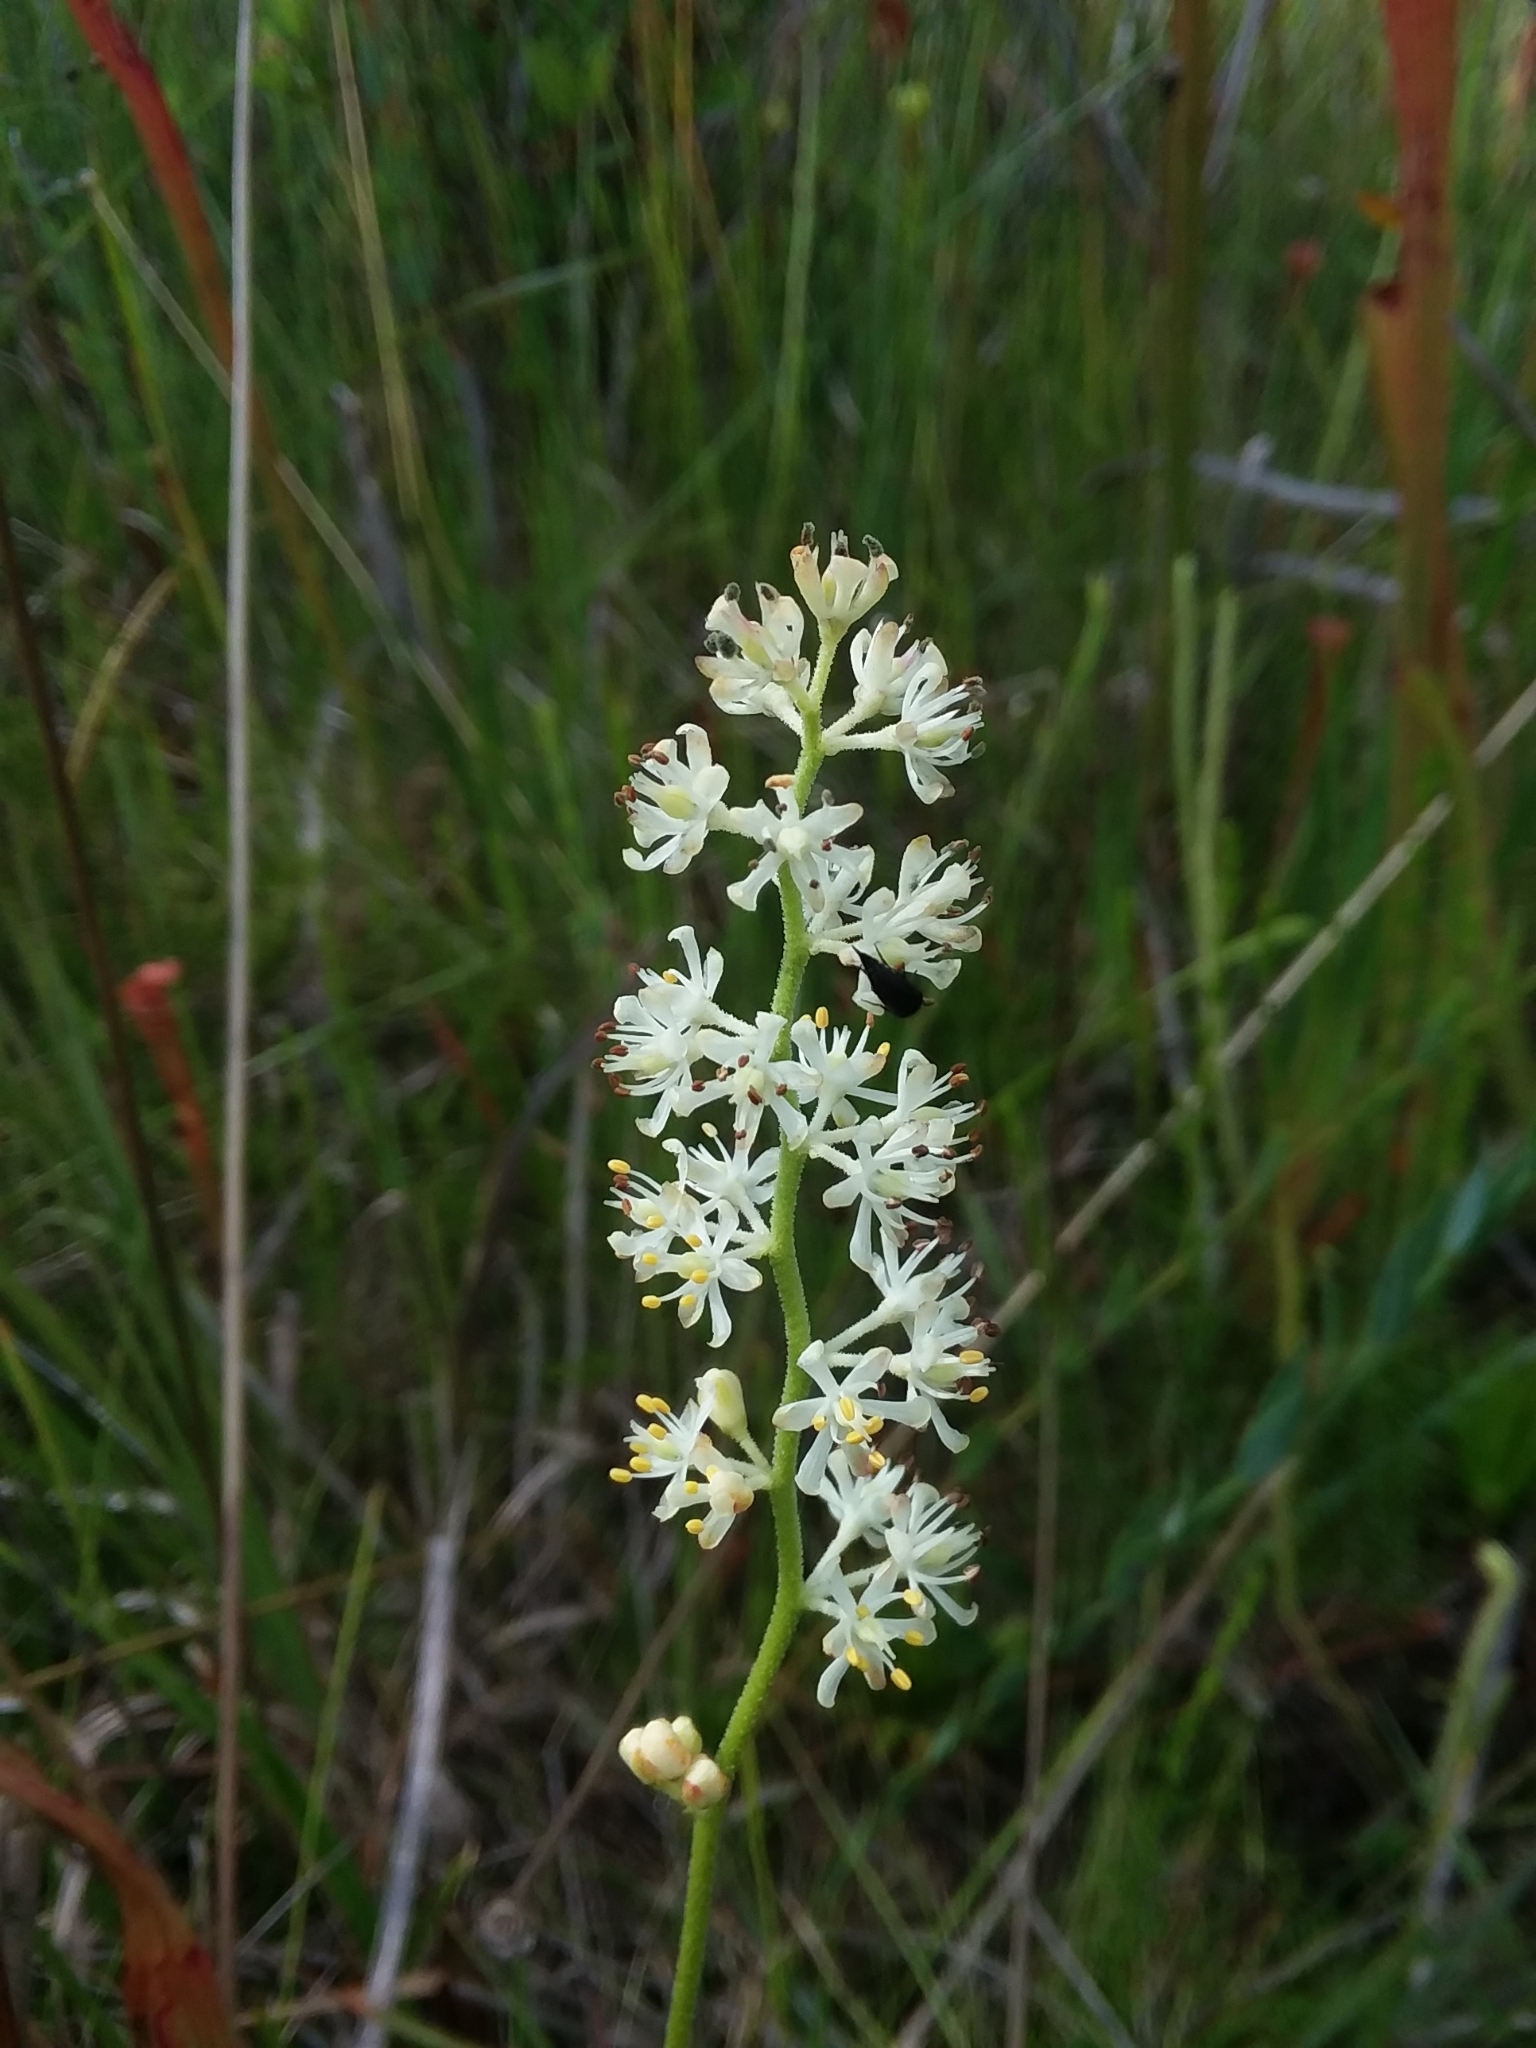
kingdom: Plantae
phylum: Tracheophyta
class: Liliopsida
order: Alismatales
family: Tofieldiaceae
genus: Triantha
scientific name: Triantha racemosa
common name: Coastal false asphodel
